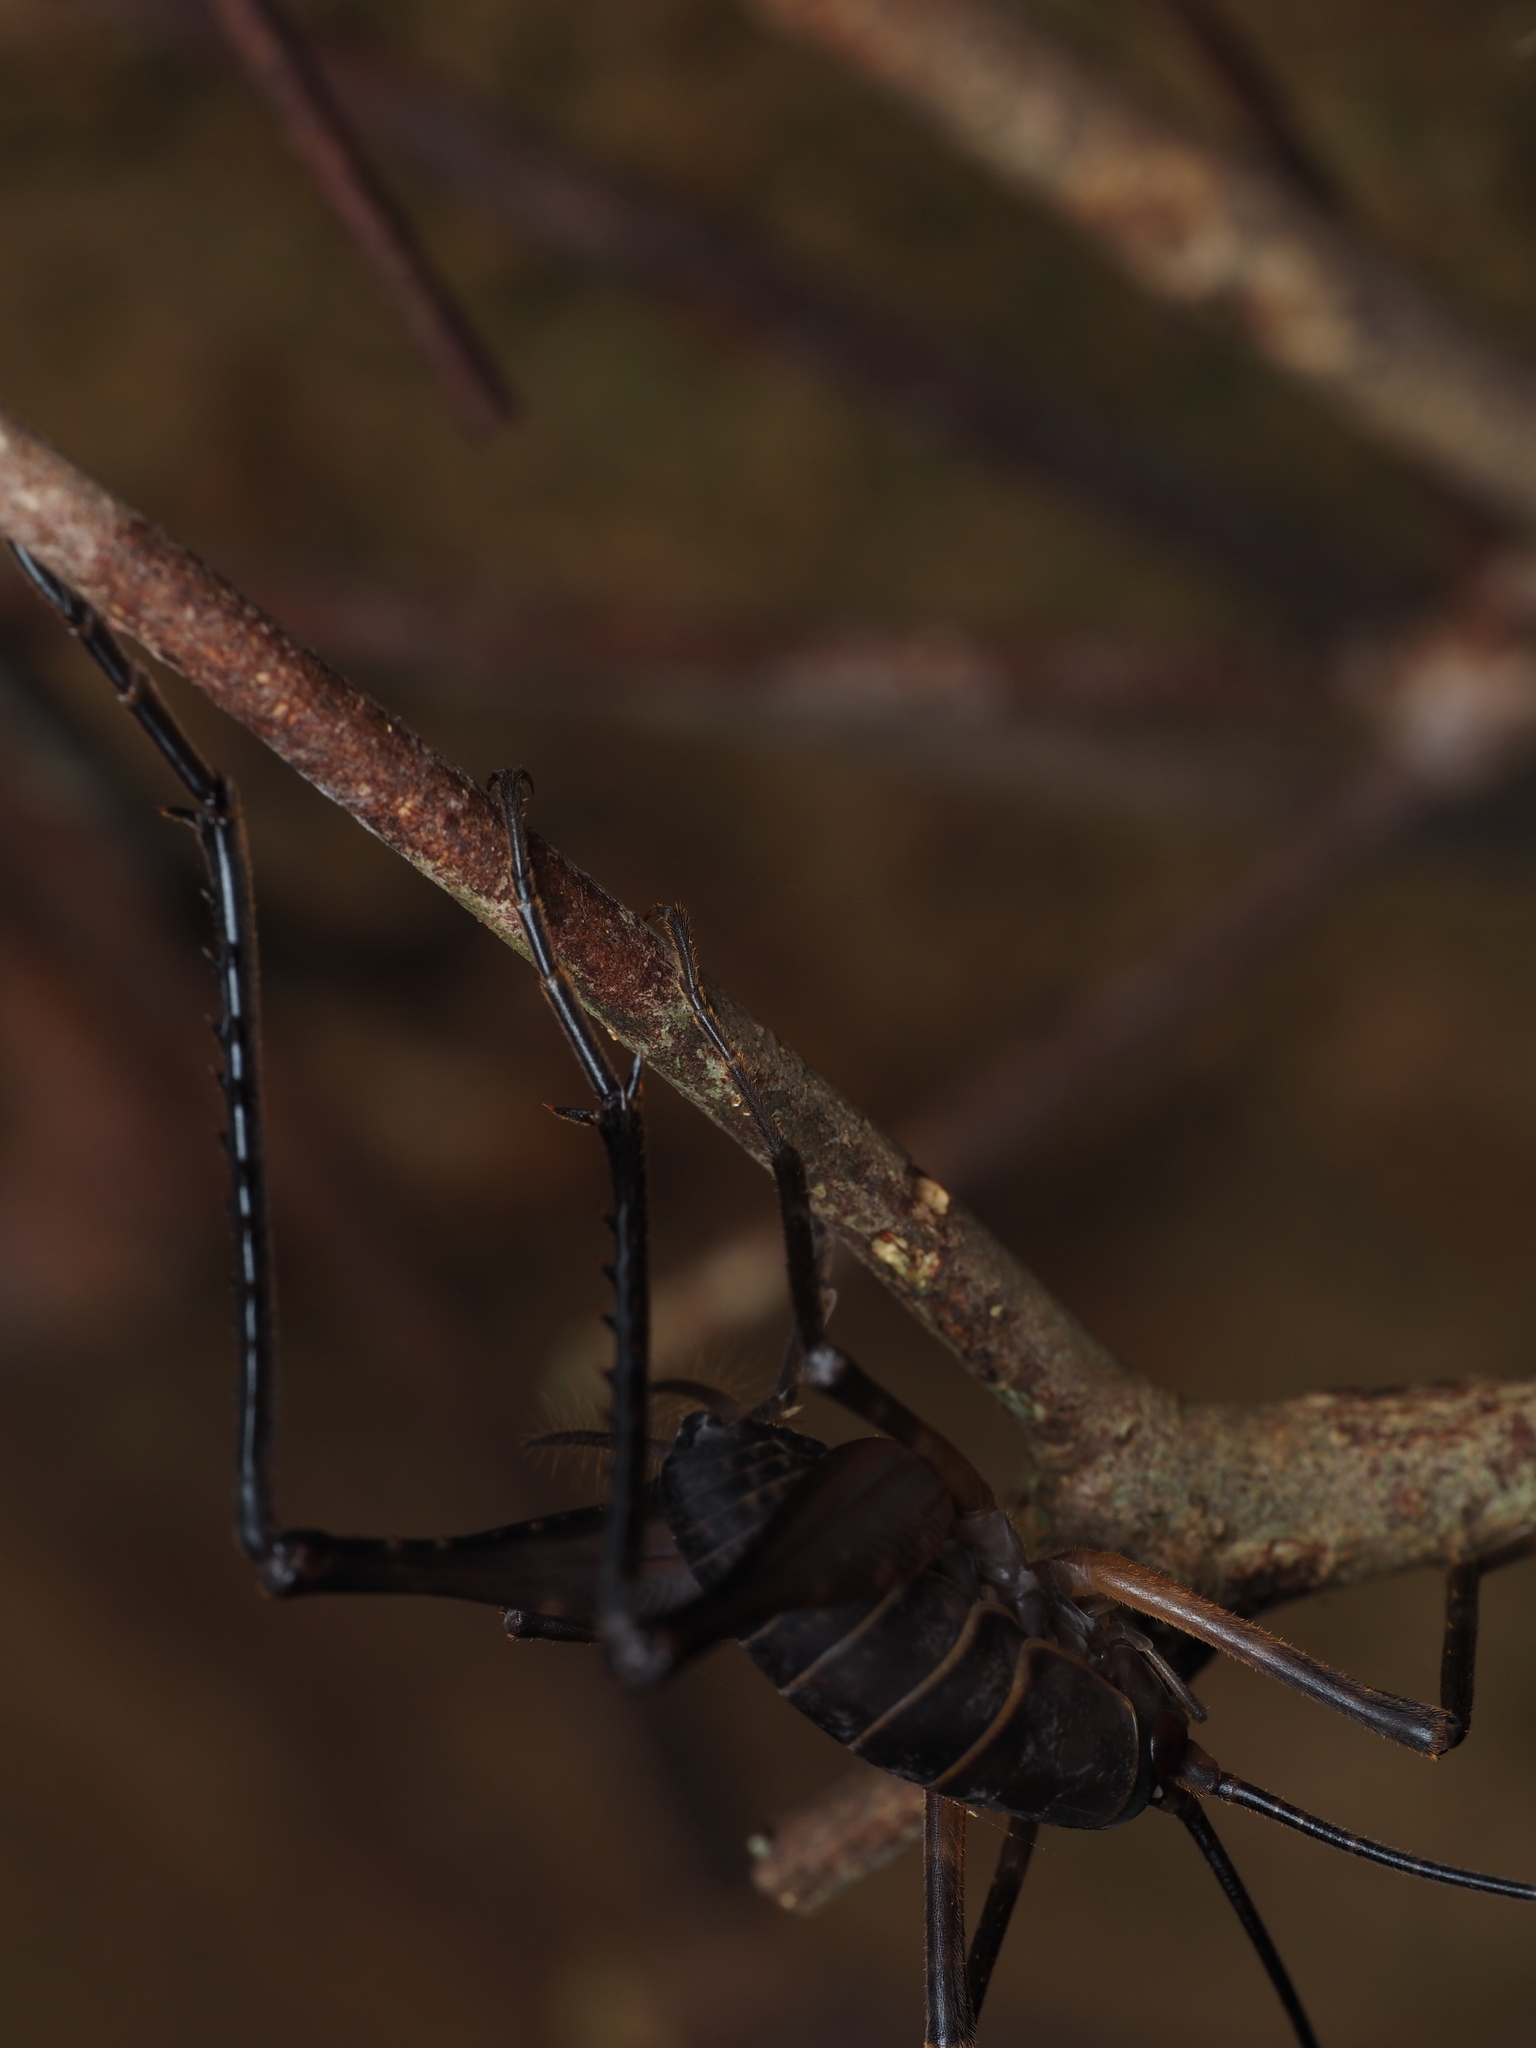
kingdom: Animalia
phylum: Arthropoda
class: Insecta
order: Orthoptera
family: Rhaphidophoridae
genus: Pachyrhamma
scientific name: Pachyrhamma longipes
